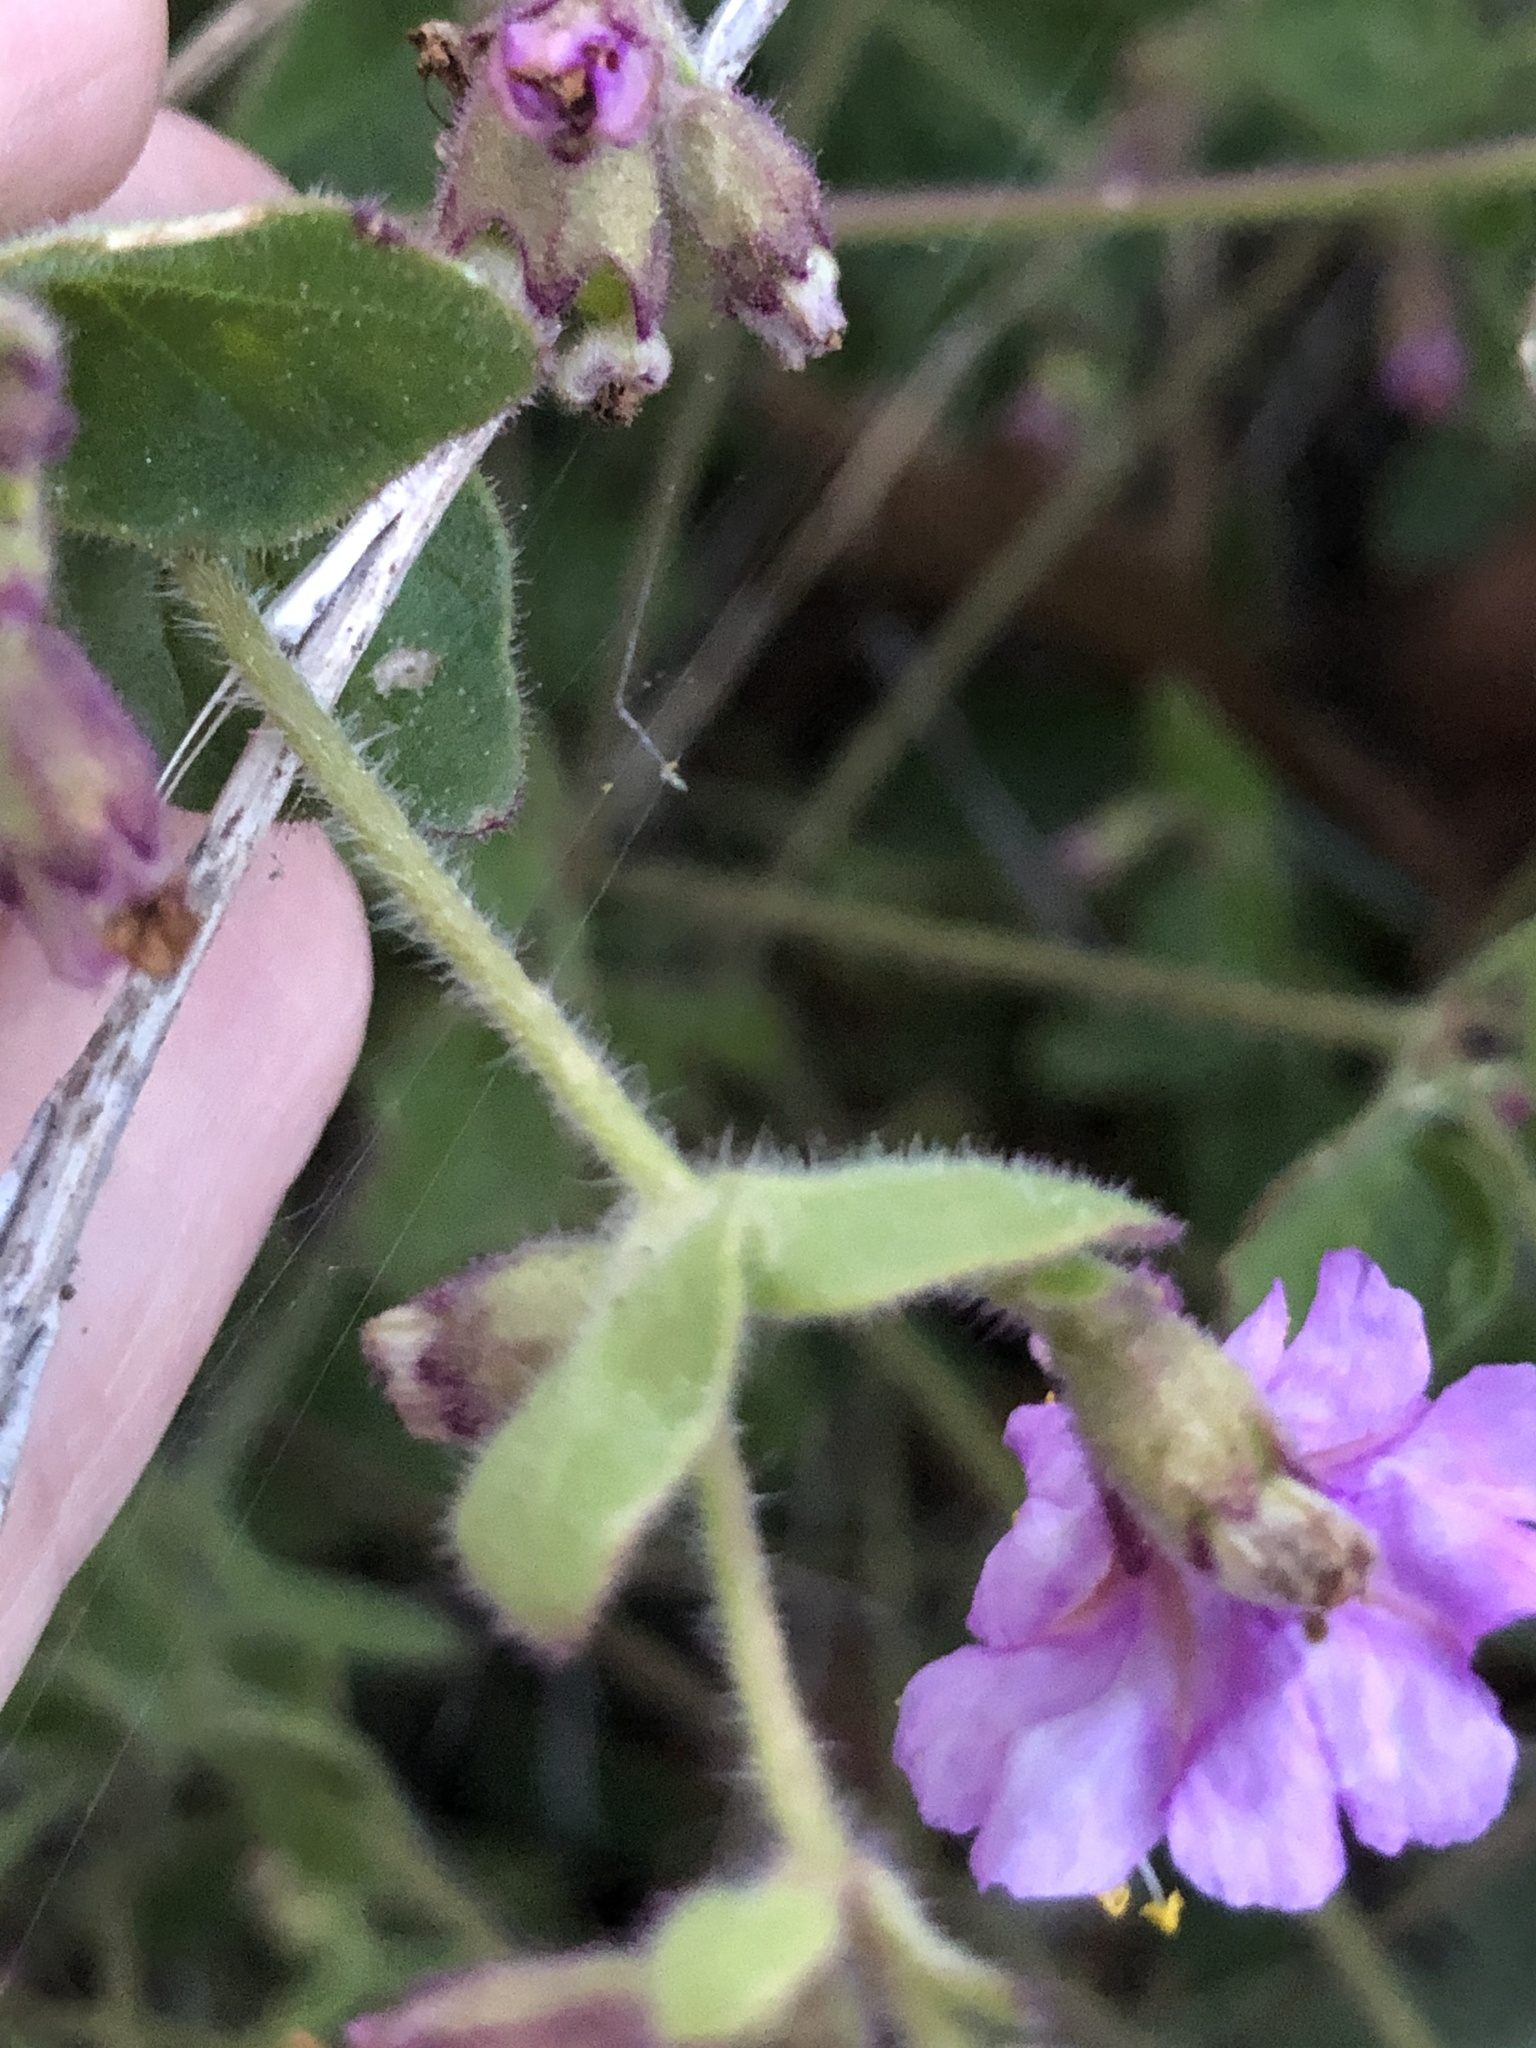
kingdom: Plantae
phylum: Tracheophyta
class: Magnoliopsida
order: Caryophyllales
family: Nyctaginaceae
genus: Mirabilis
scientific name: Mirabilis laevis
